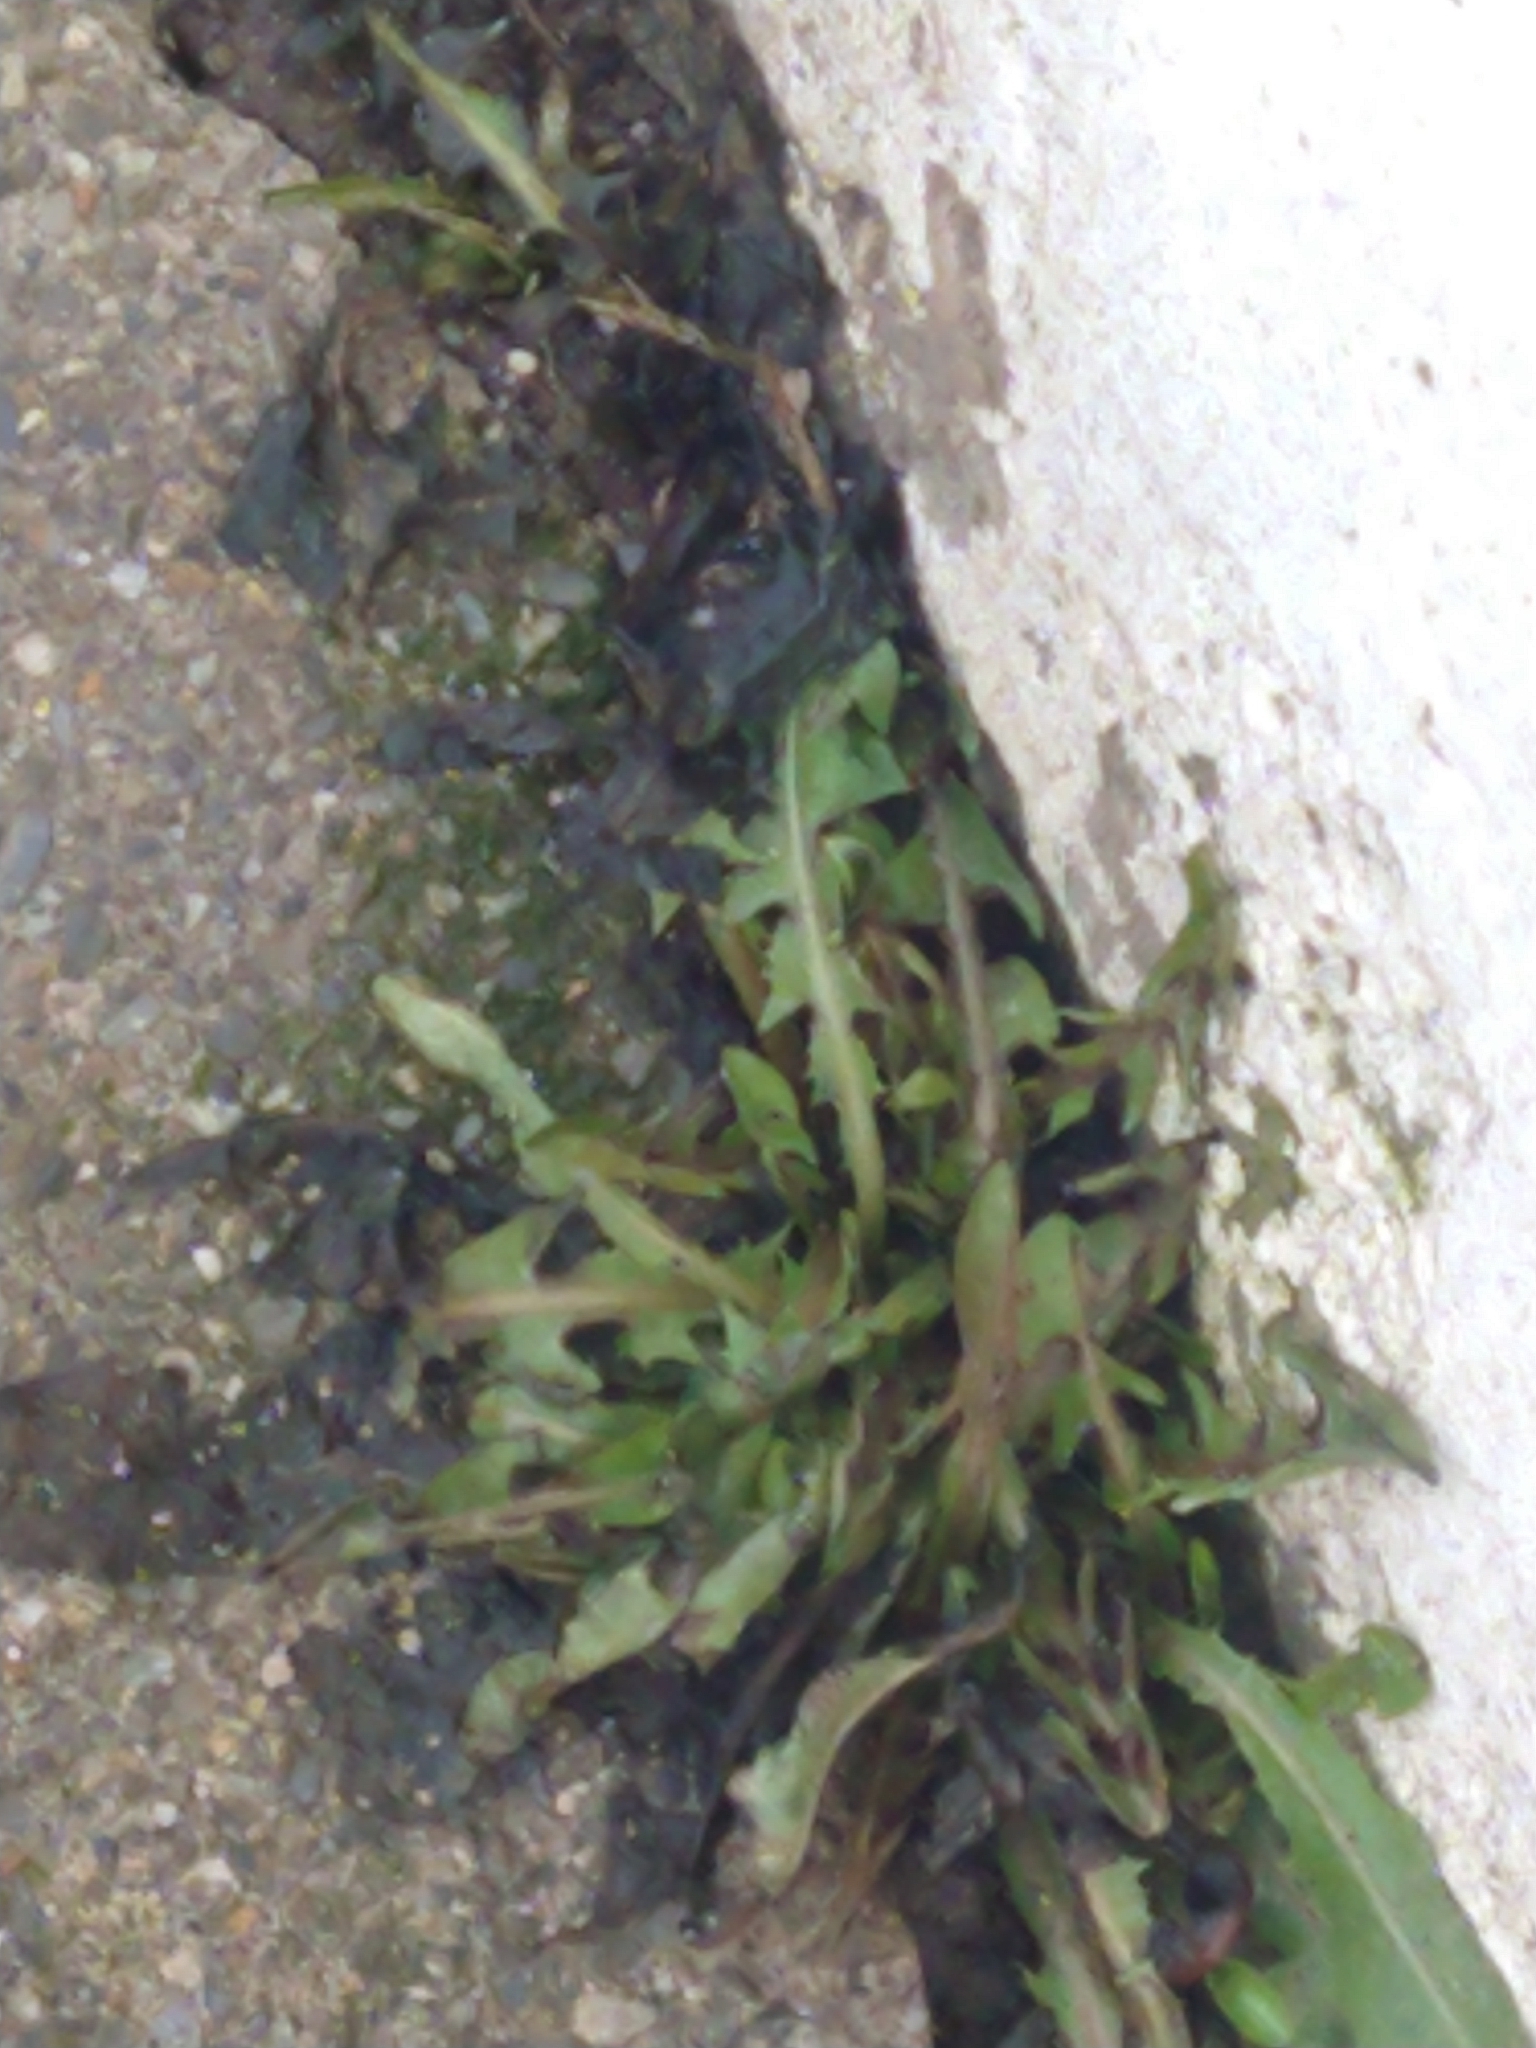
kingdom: Plantae
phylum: Tracheophyta
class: Magnoliopsida
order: Asterales
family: Asteraceae
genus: Taraxacum
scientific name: Taraxacum officinale
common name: Common dandelion
